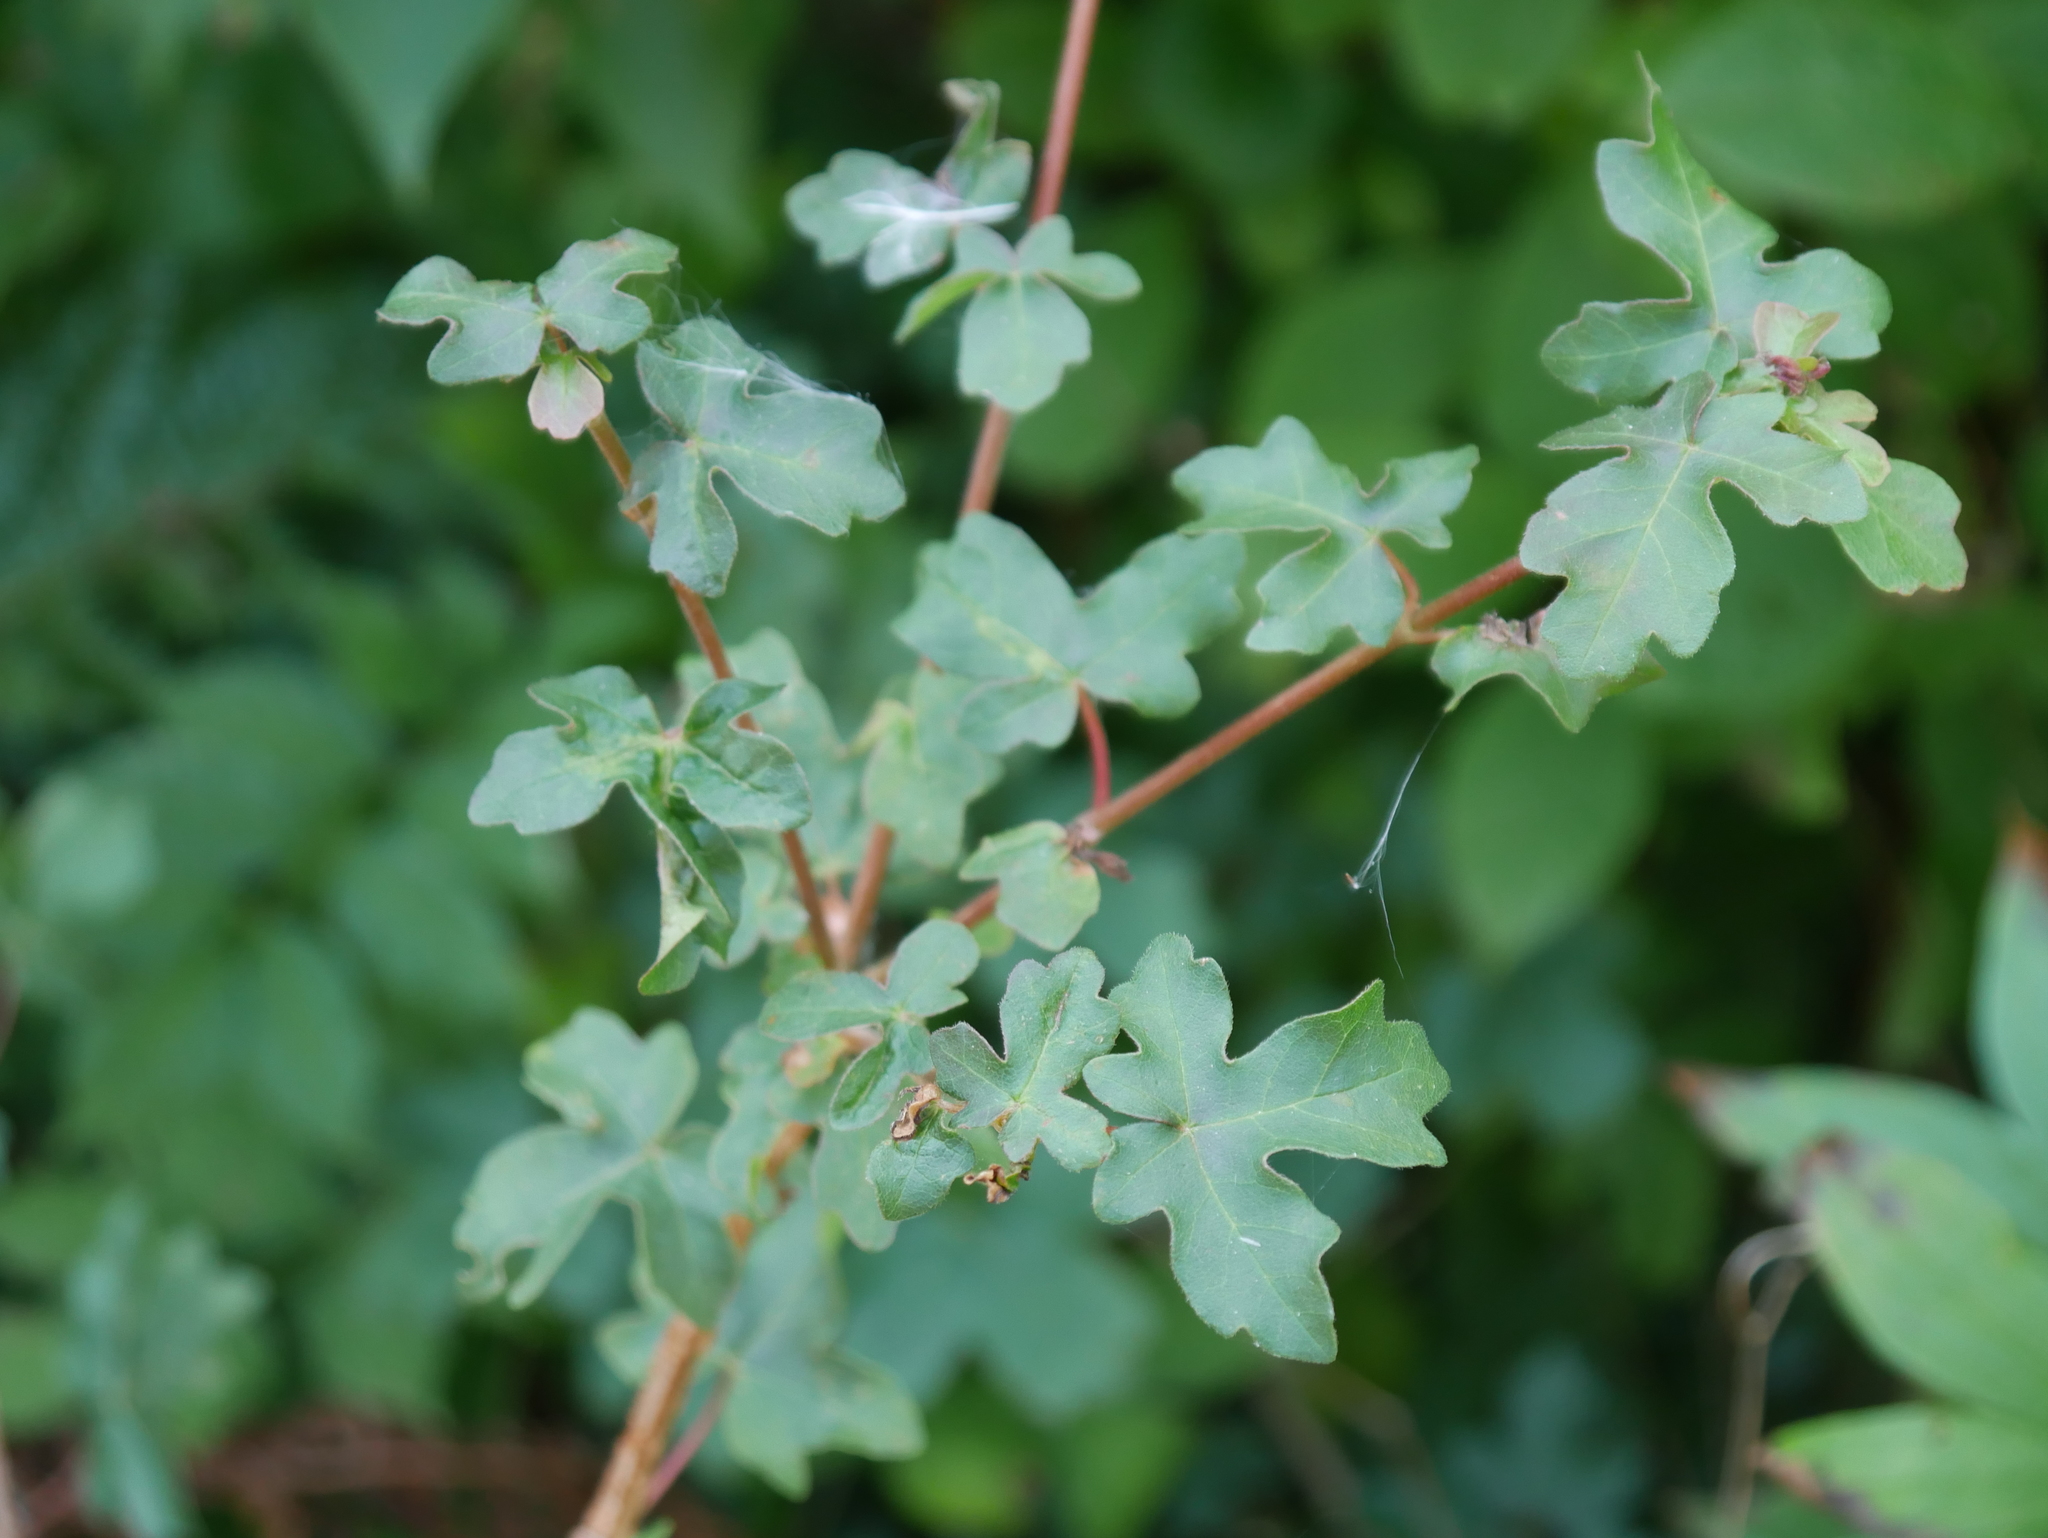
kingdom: Plantae
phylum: Tracheophyta
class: Magnoliopsida
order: Sapindales
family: Sapindaceae
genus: Acer
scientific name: Acer campestre
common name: Field maple
